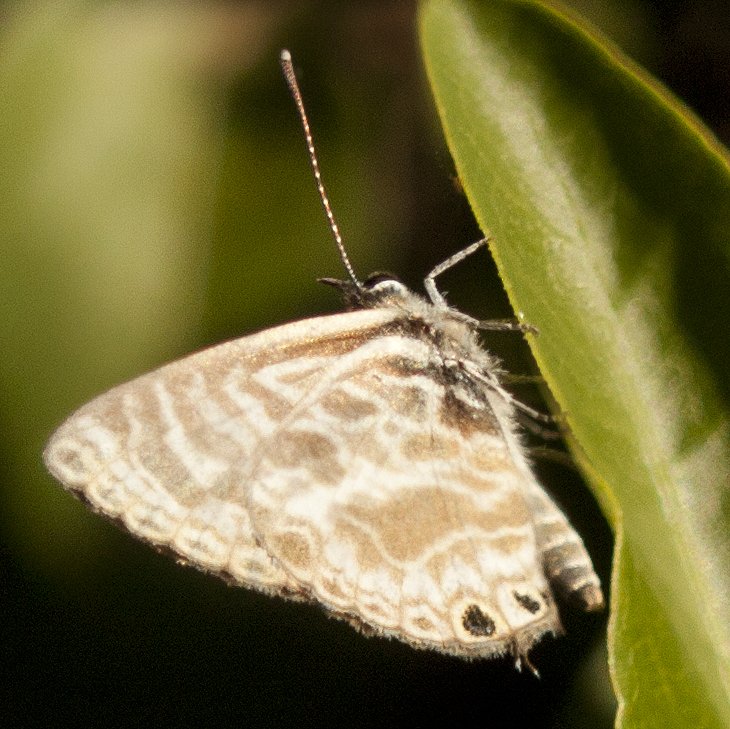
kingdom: Animalia
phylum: Arthropoda
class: Insecta
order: Lepidoptera
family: Lycaenidae
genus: Leptotes
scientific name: Leptotes plinius
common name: Zebra blue
